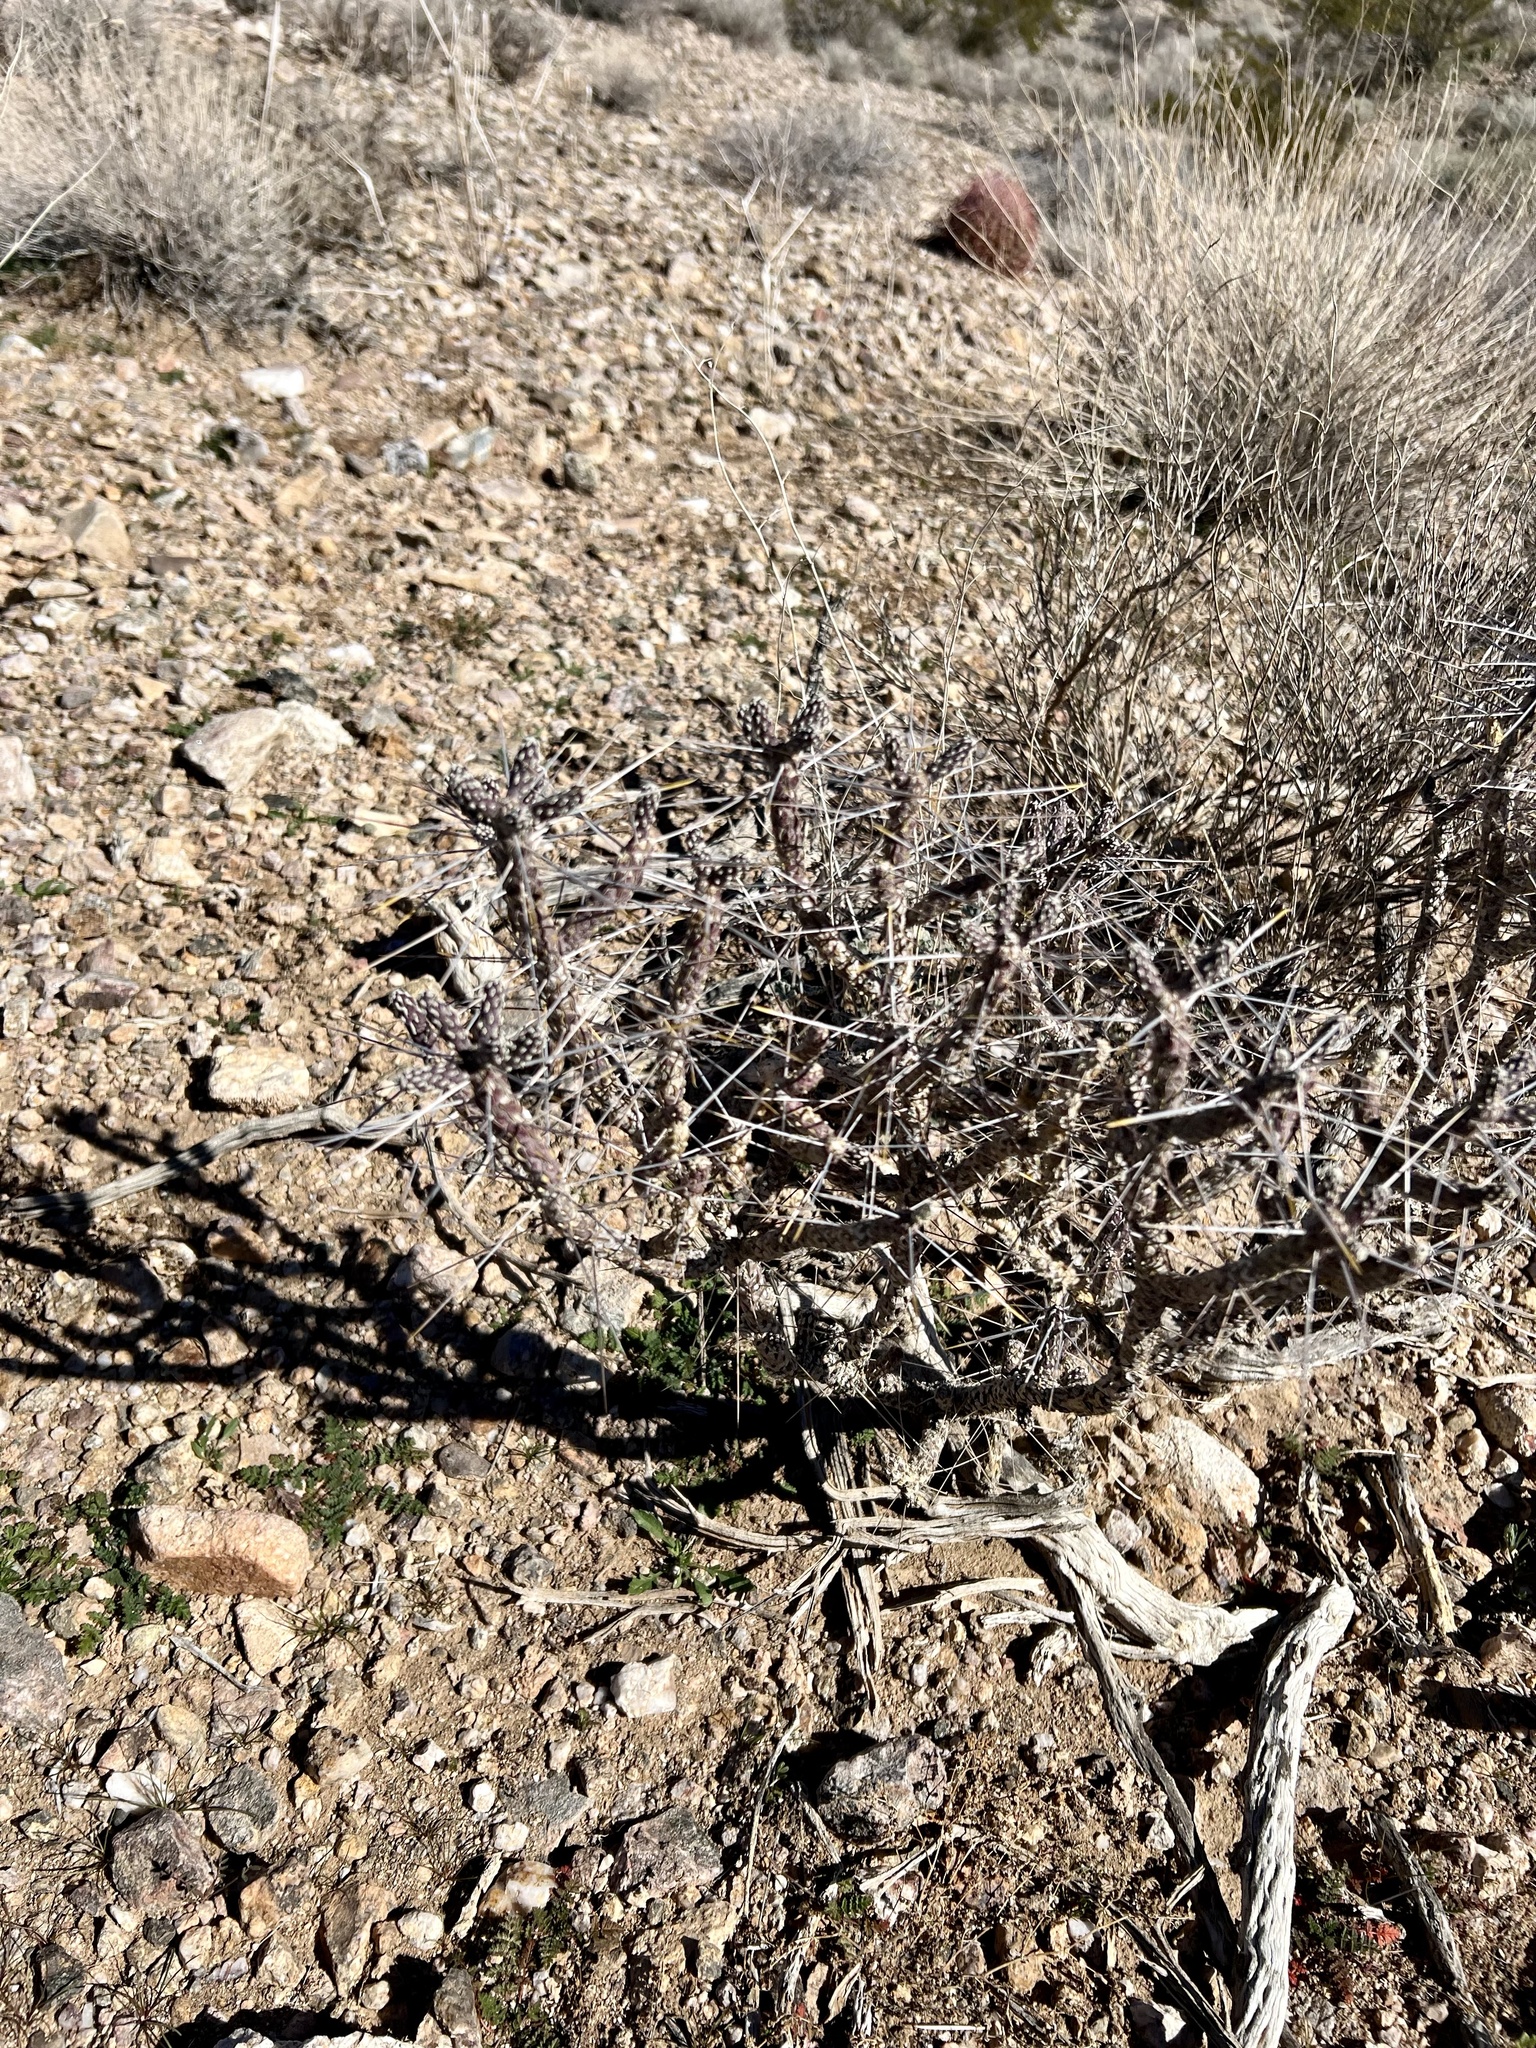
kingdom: Plantae
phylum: Tracheophyta
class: Magnoliopsida
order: Caryophyllales
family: Cactaceae
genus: Cylindropuntia
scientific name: Cylindropuntia ramosissima
